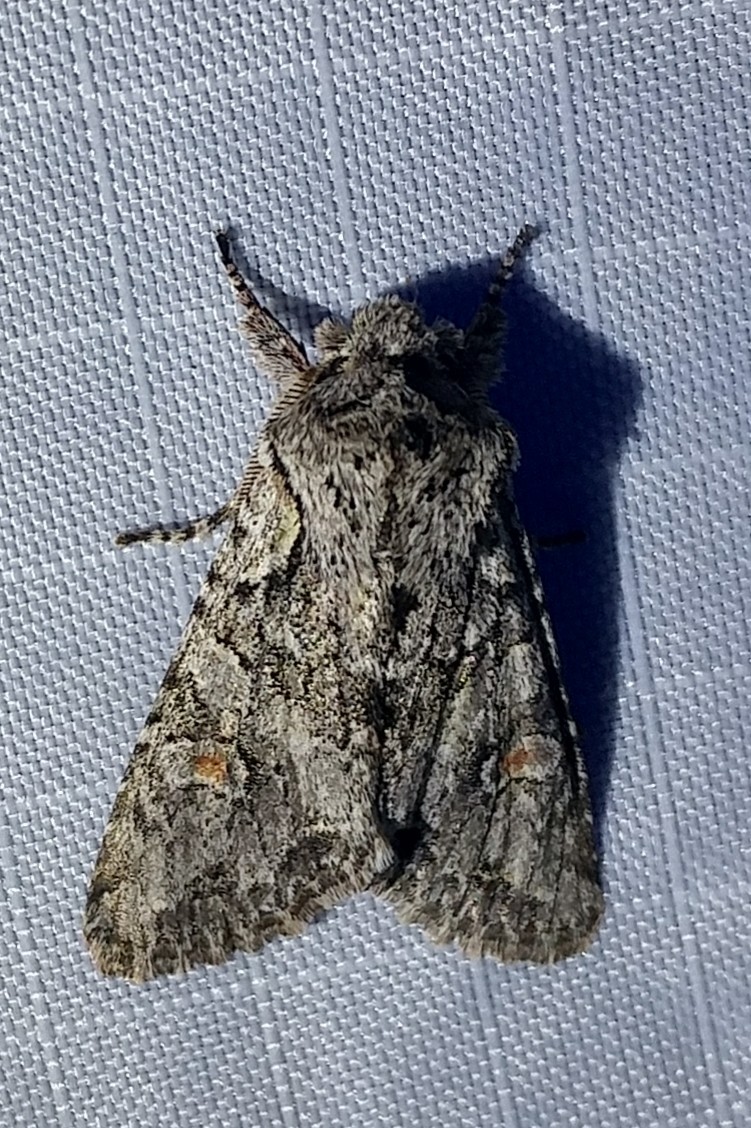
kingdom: Animalia
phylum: Arthropoda
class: Insecta
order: Lepidoptera
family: Noctuidae
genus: Egira
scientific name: Egira hiemalis
